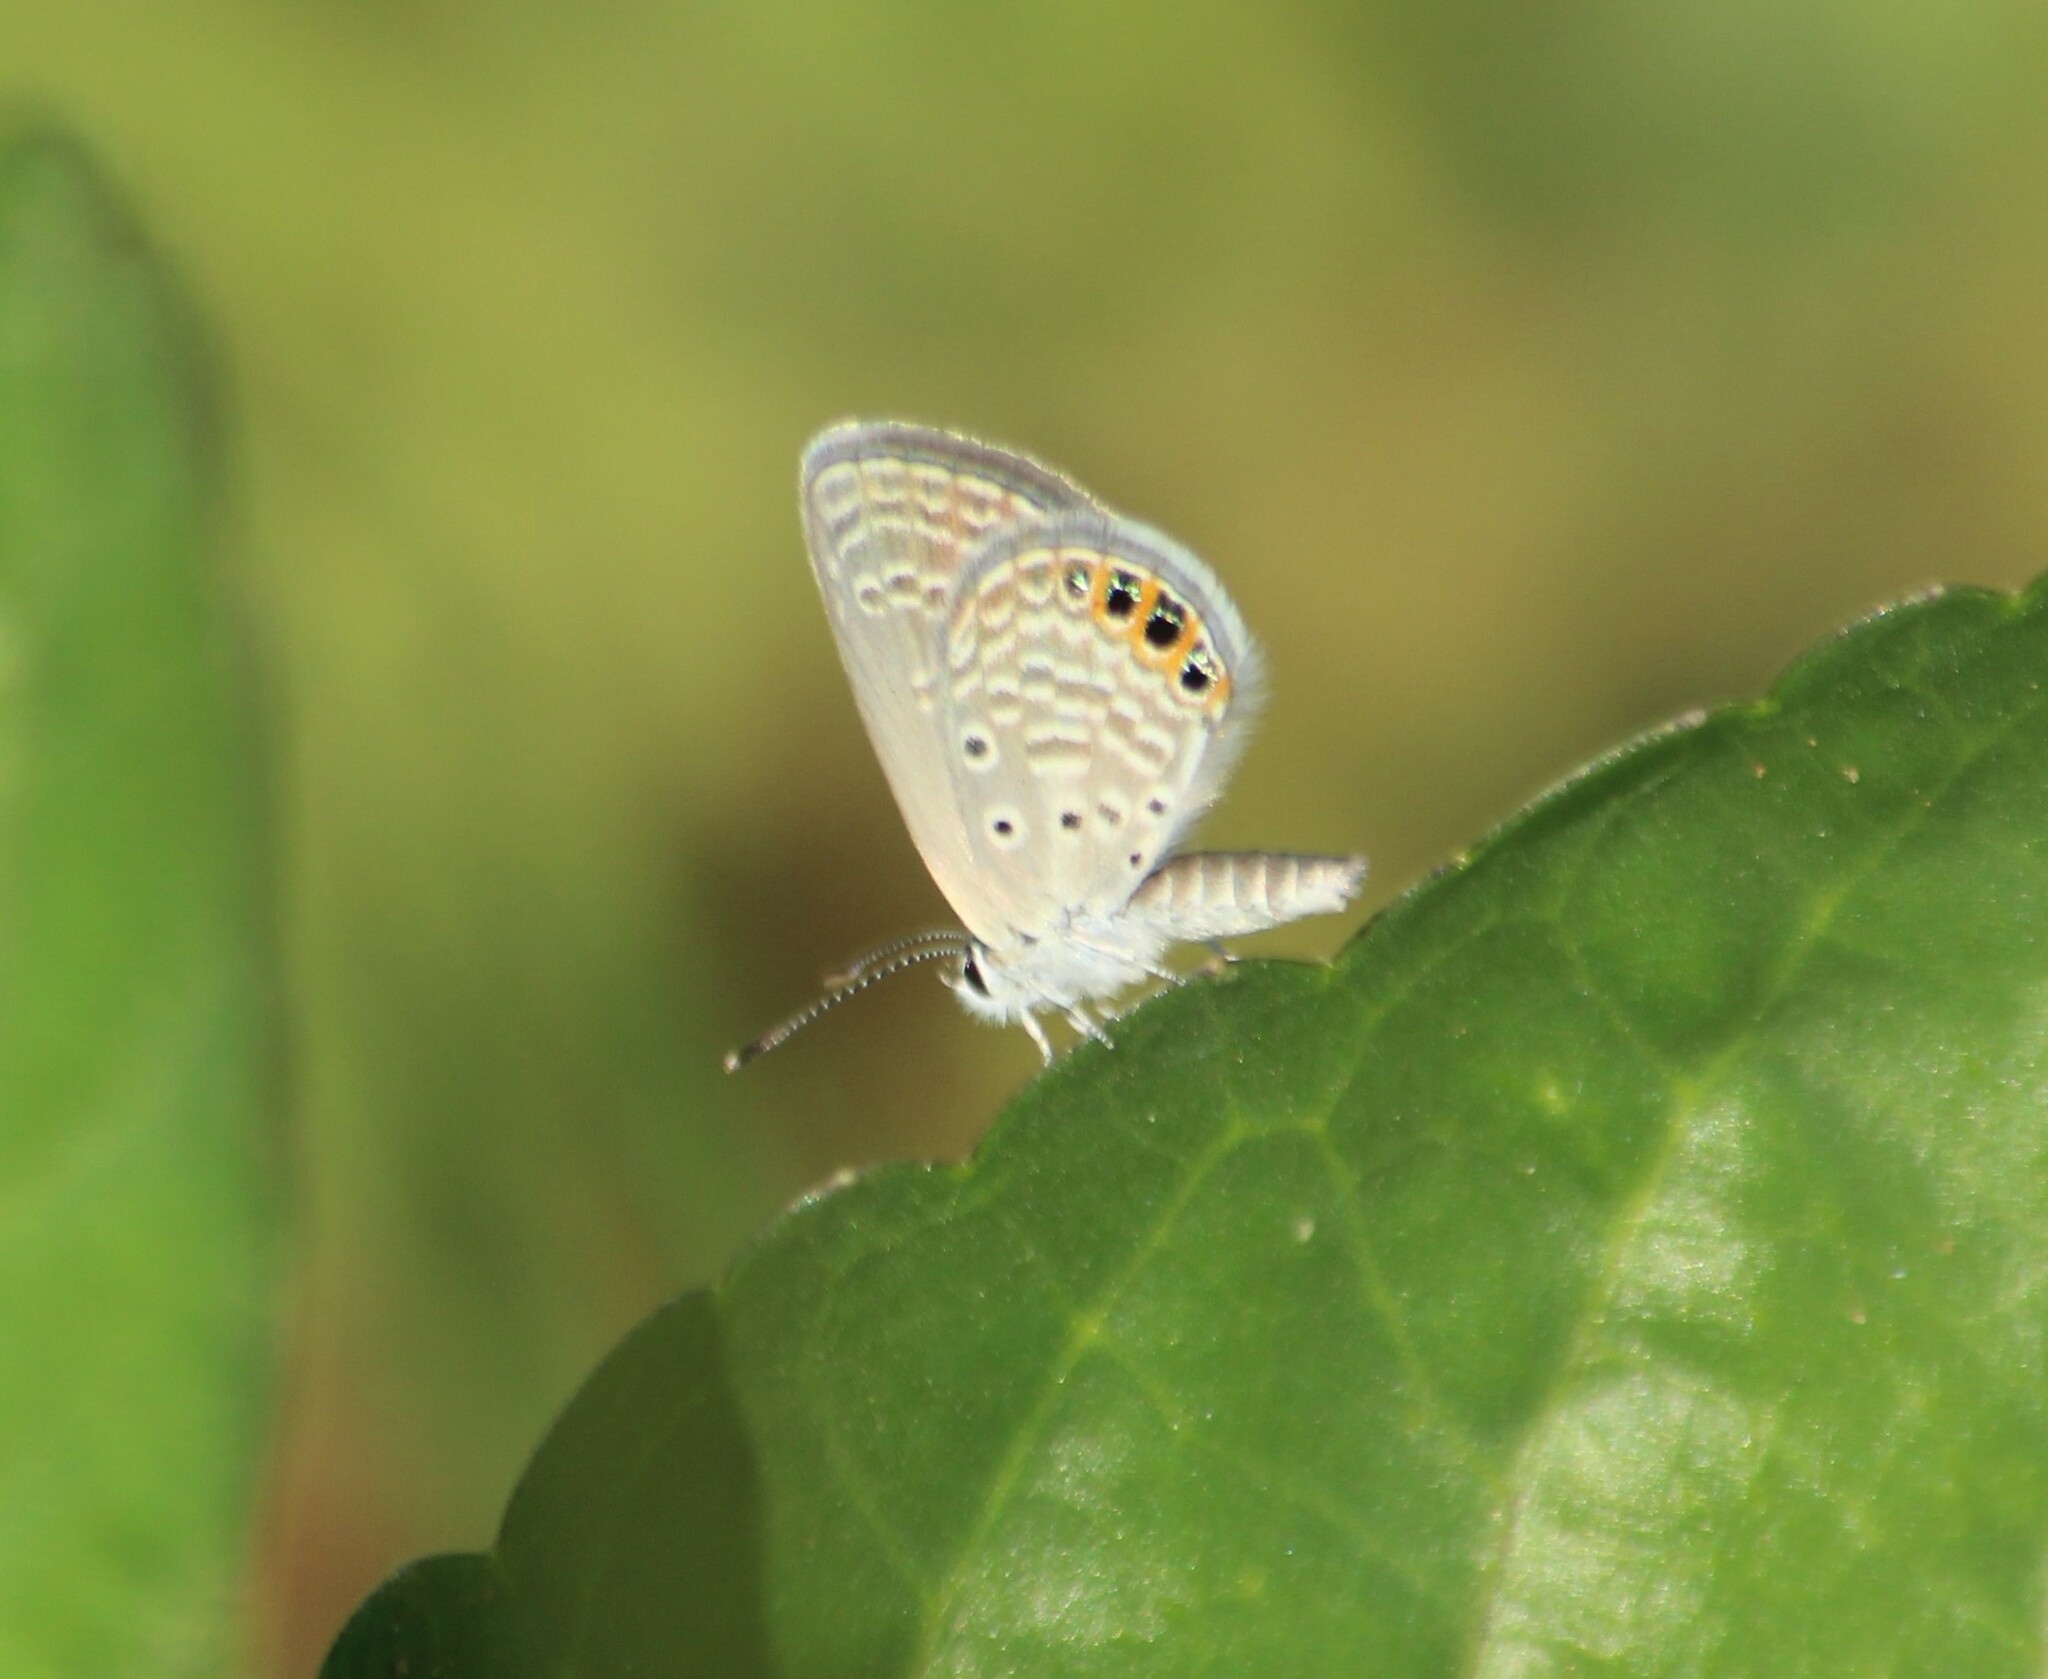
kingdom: Animalia
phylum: Arthropoda
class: Insecta
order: Lepidoptera
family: Lycaenidae
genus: Freyeria
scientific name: Freyeria putli
